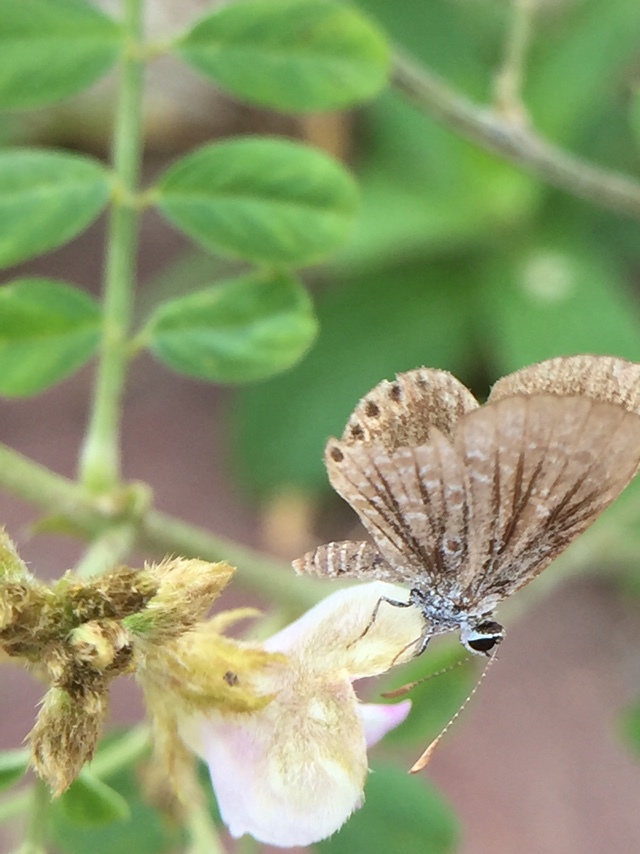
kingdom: Animalia
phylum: Arthropoda
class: Insecta
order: Lepidoptera
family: Lycaenidae
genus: Freyeria
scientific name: Freyeria putli
